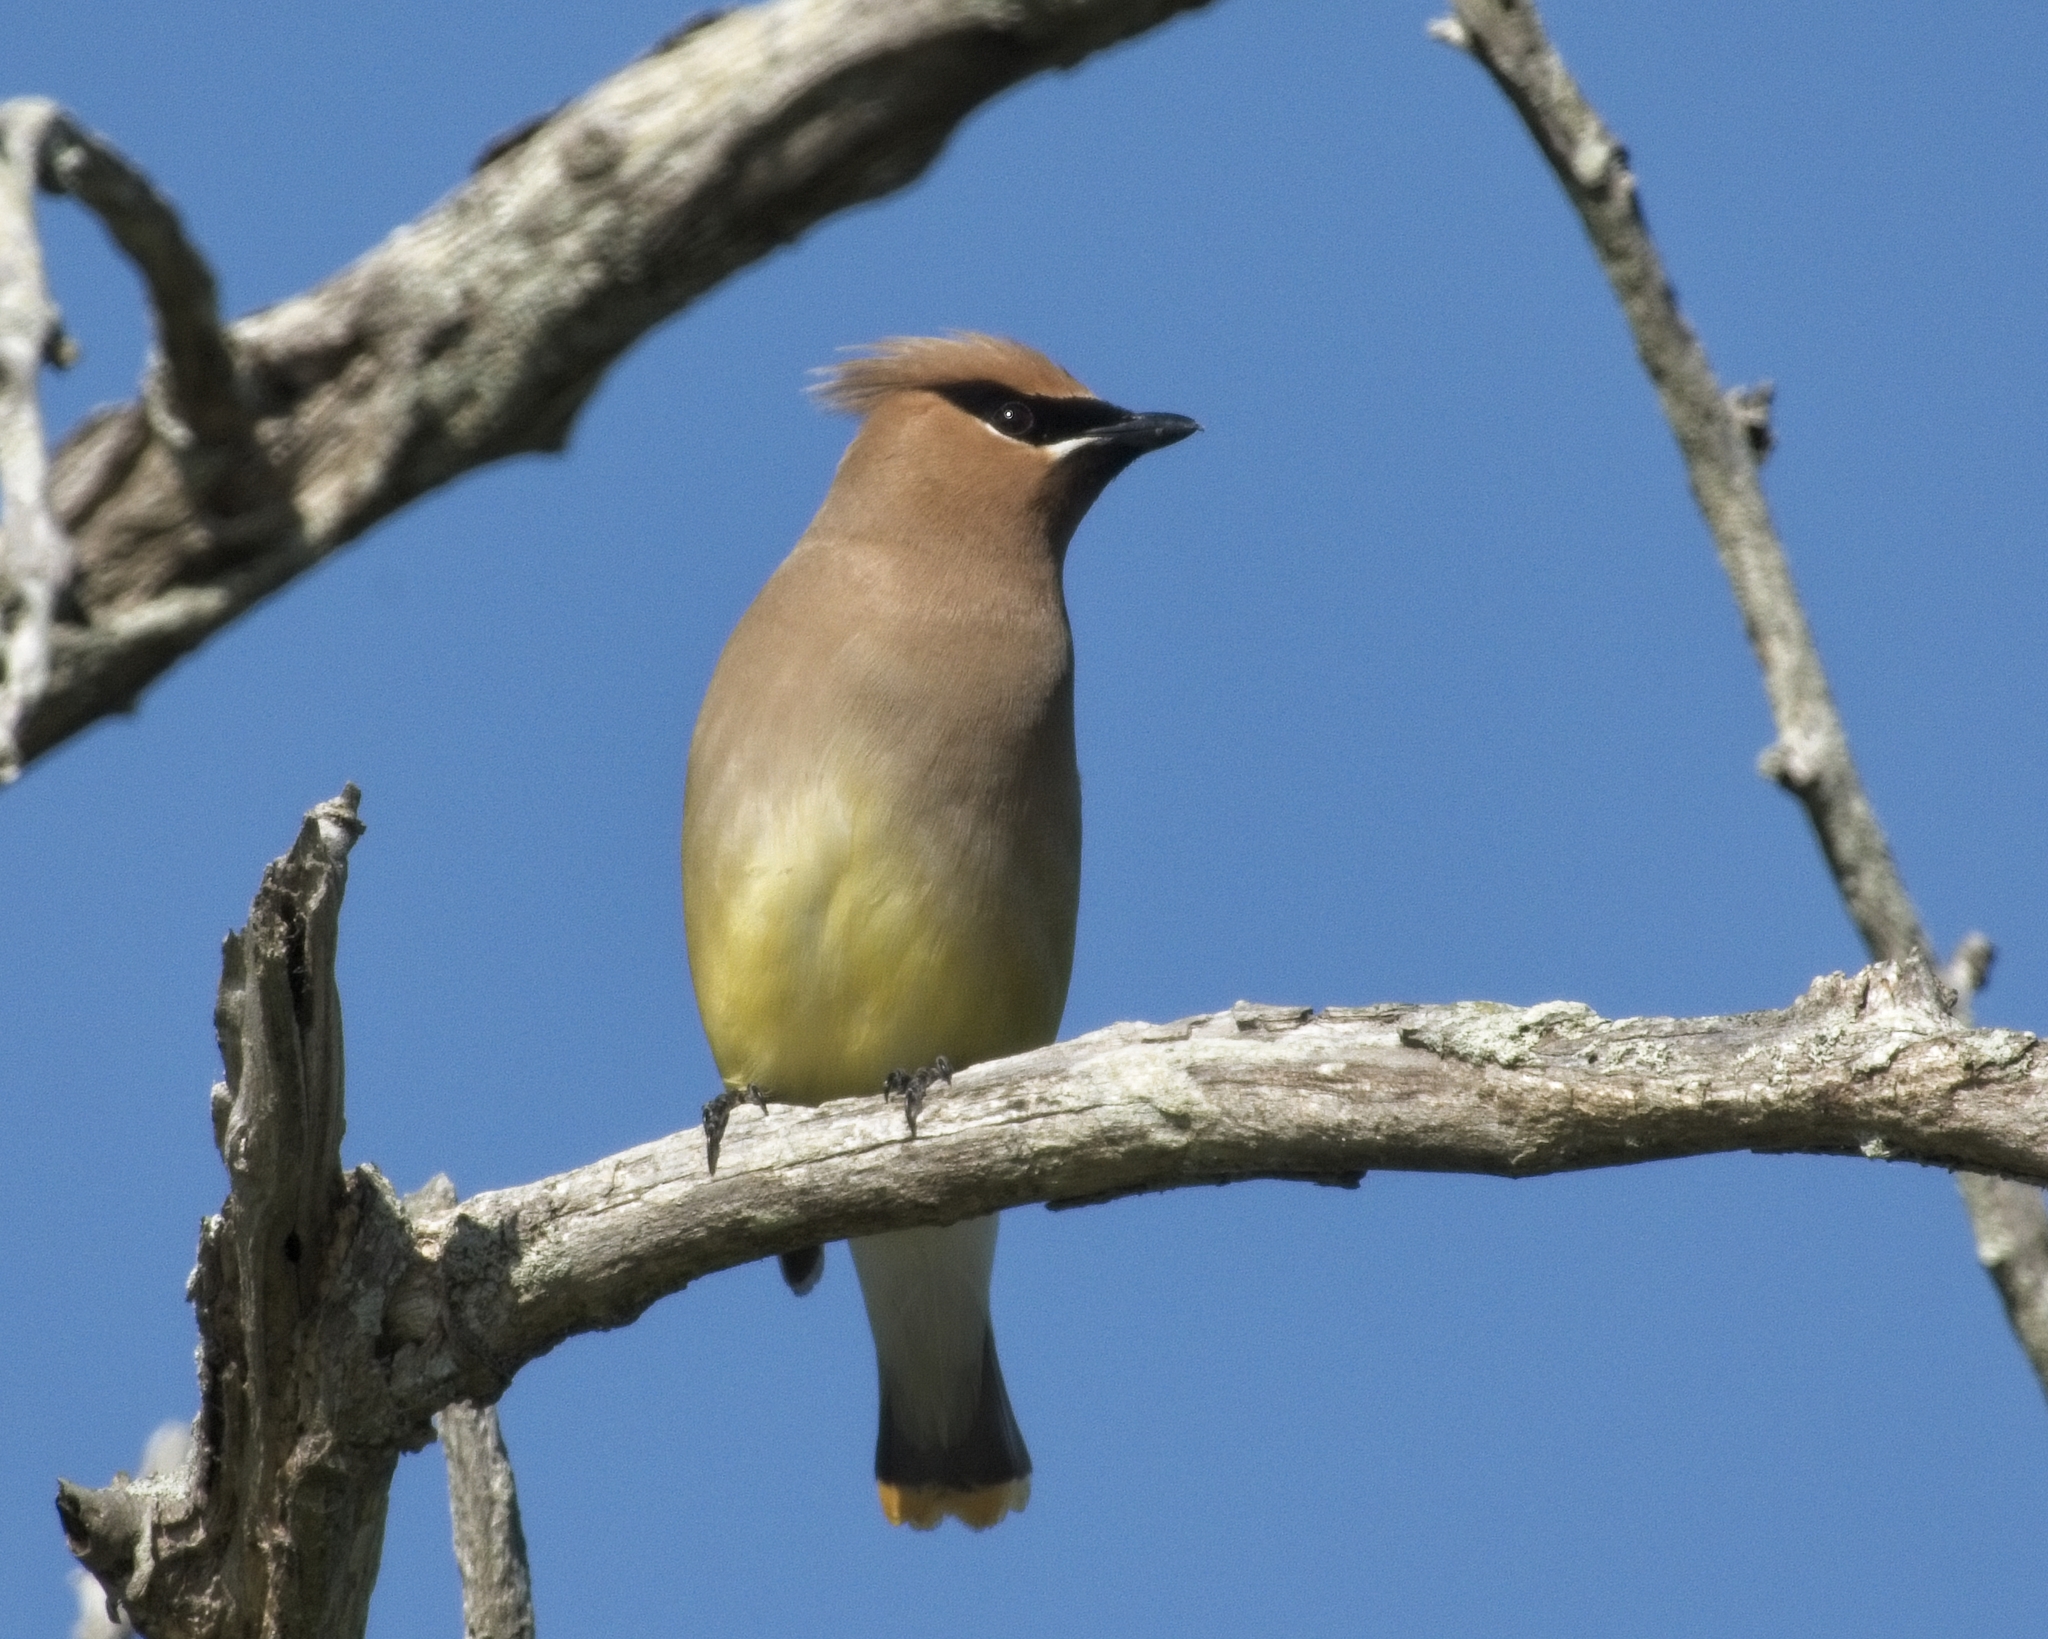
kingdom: Animalia
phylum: Chordata
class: Aves
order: Passeriformes
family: Bombycillidae
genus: Bombycilla
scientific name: Bombycilla cedrorum
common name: Cedar waxwing
